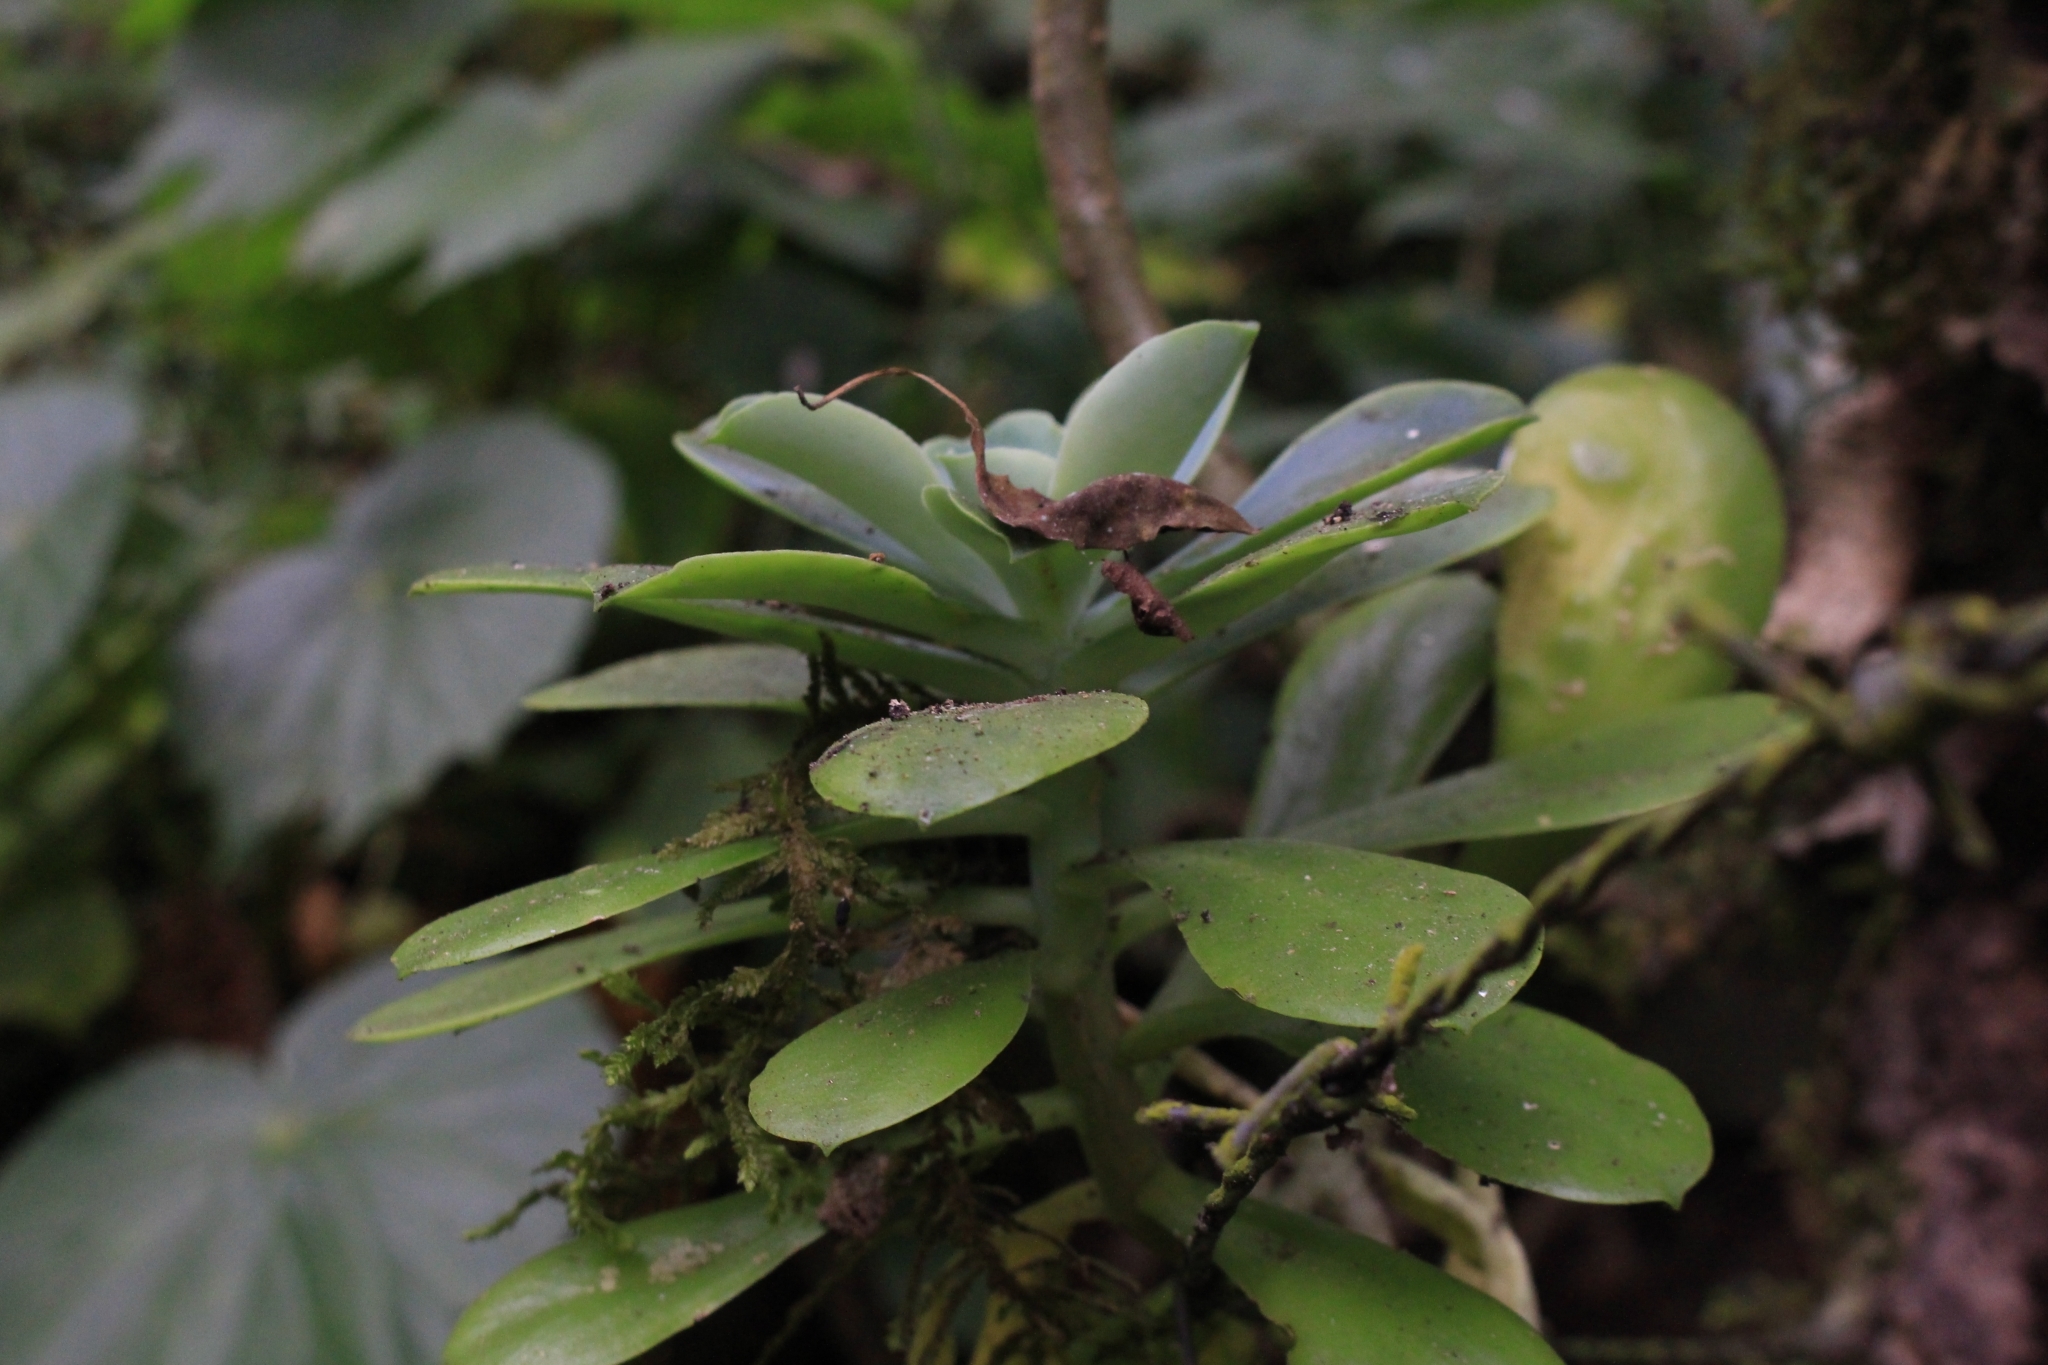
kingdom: Plantae
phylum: Tracheophyta
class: Magnoliopsida
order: Saxifragales
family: Crassulaceae
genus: Echeveria
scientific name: Echeveria australis
